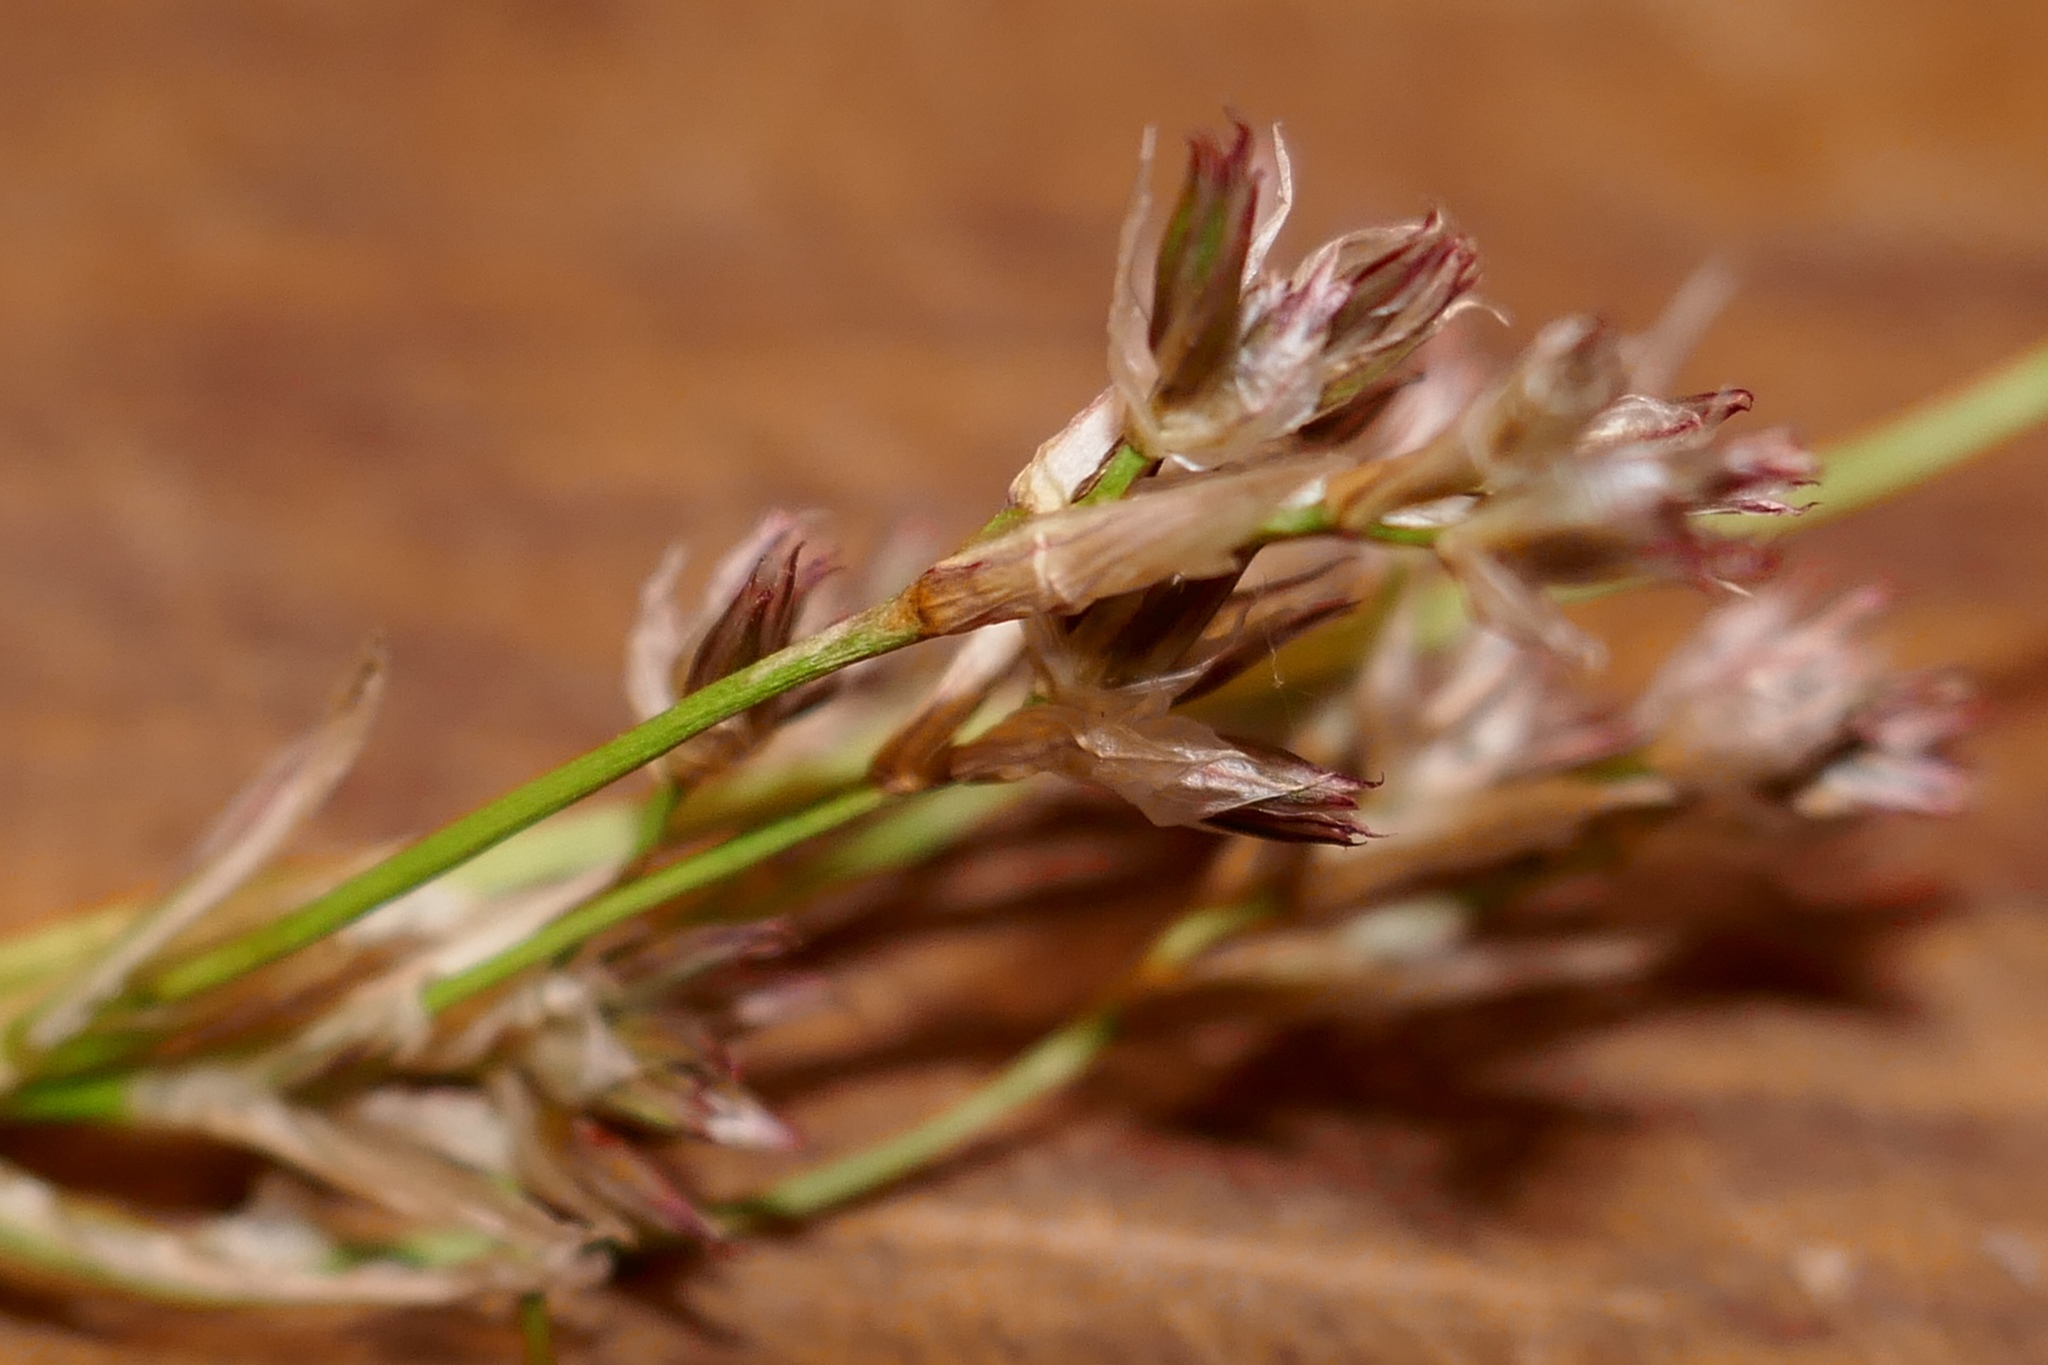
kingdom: Plantae
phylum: Tracheophyta
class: Liliopsida
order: Poales
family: Juncaceae
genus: Juncus
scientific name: Juncus articulatus
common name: Jointed rush
